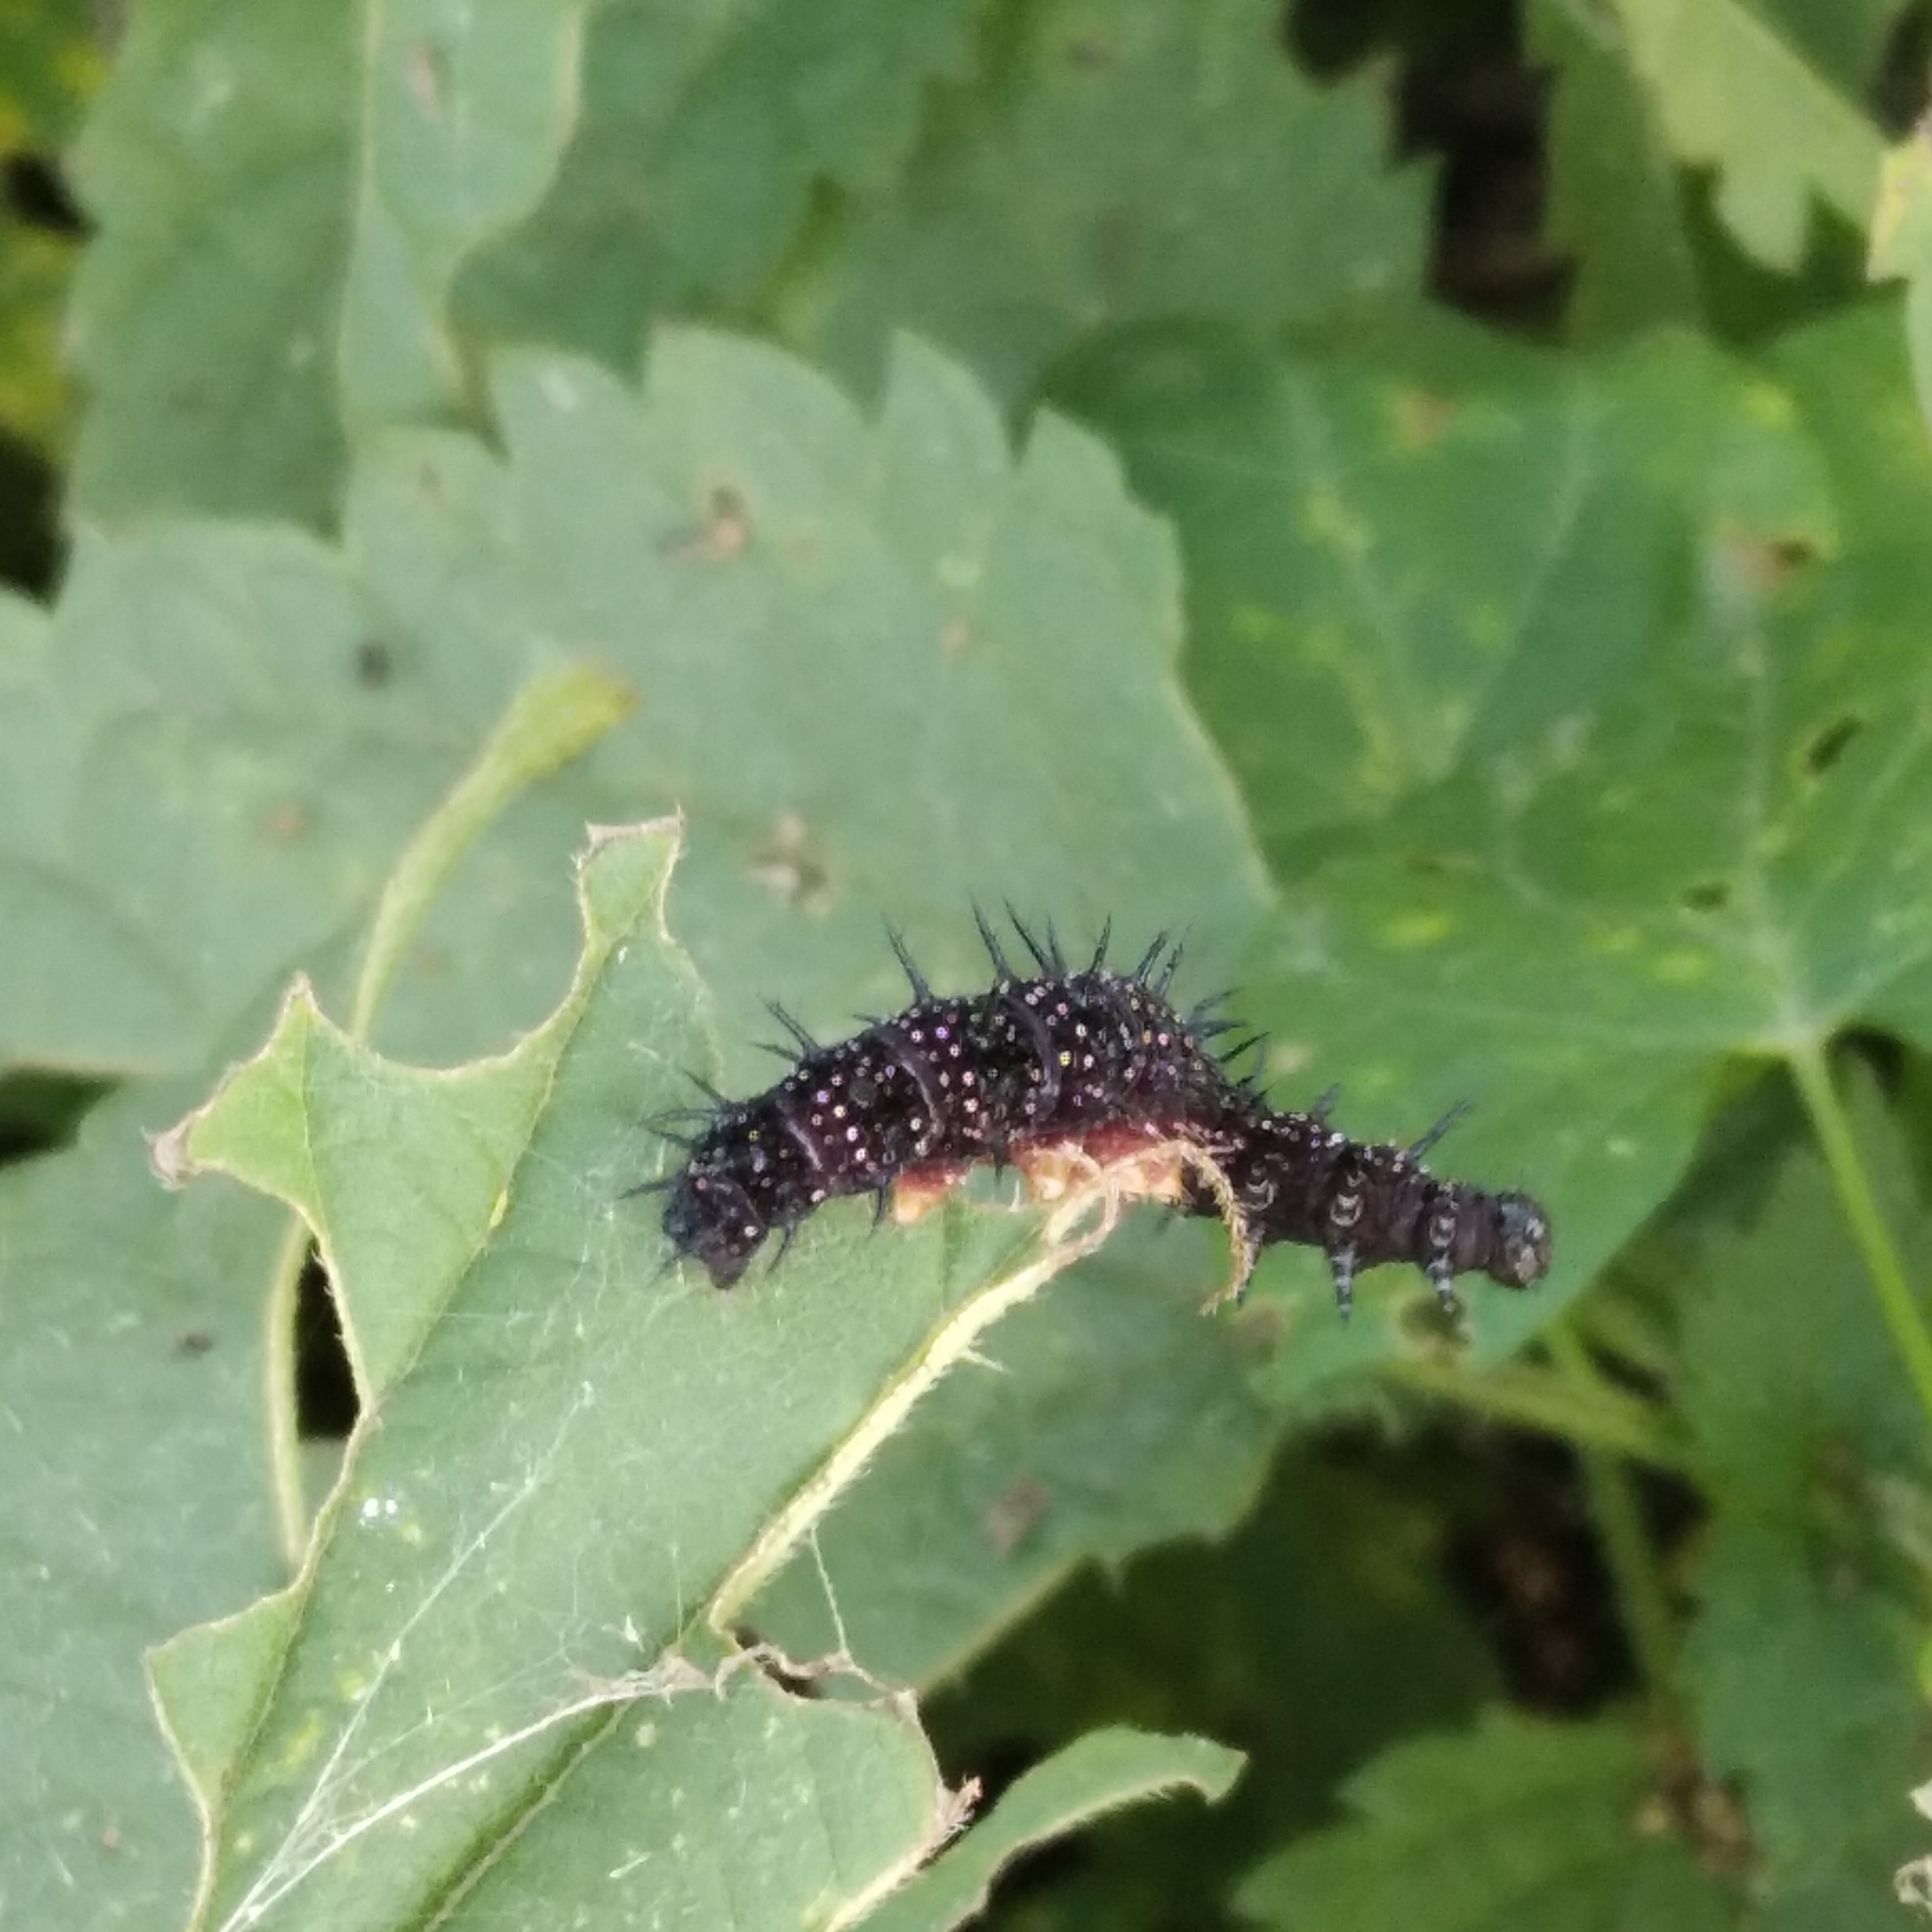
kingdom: Animalia
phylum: Arthropoda
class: Insecta
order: Lepidoptera
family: Nymphalidae
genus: Aglais
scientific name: Aglais io
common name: Peacock
